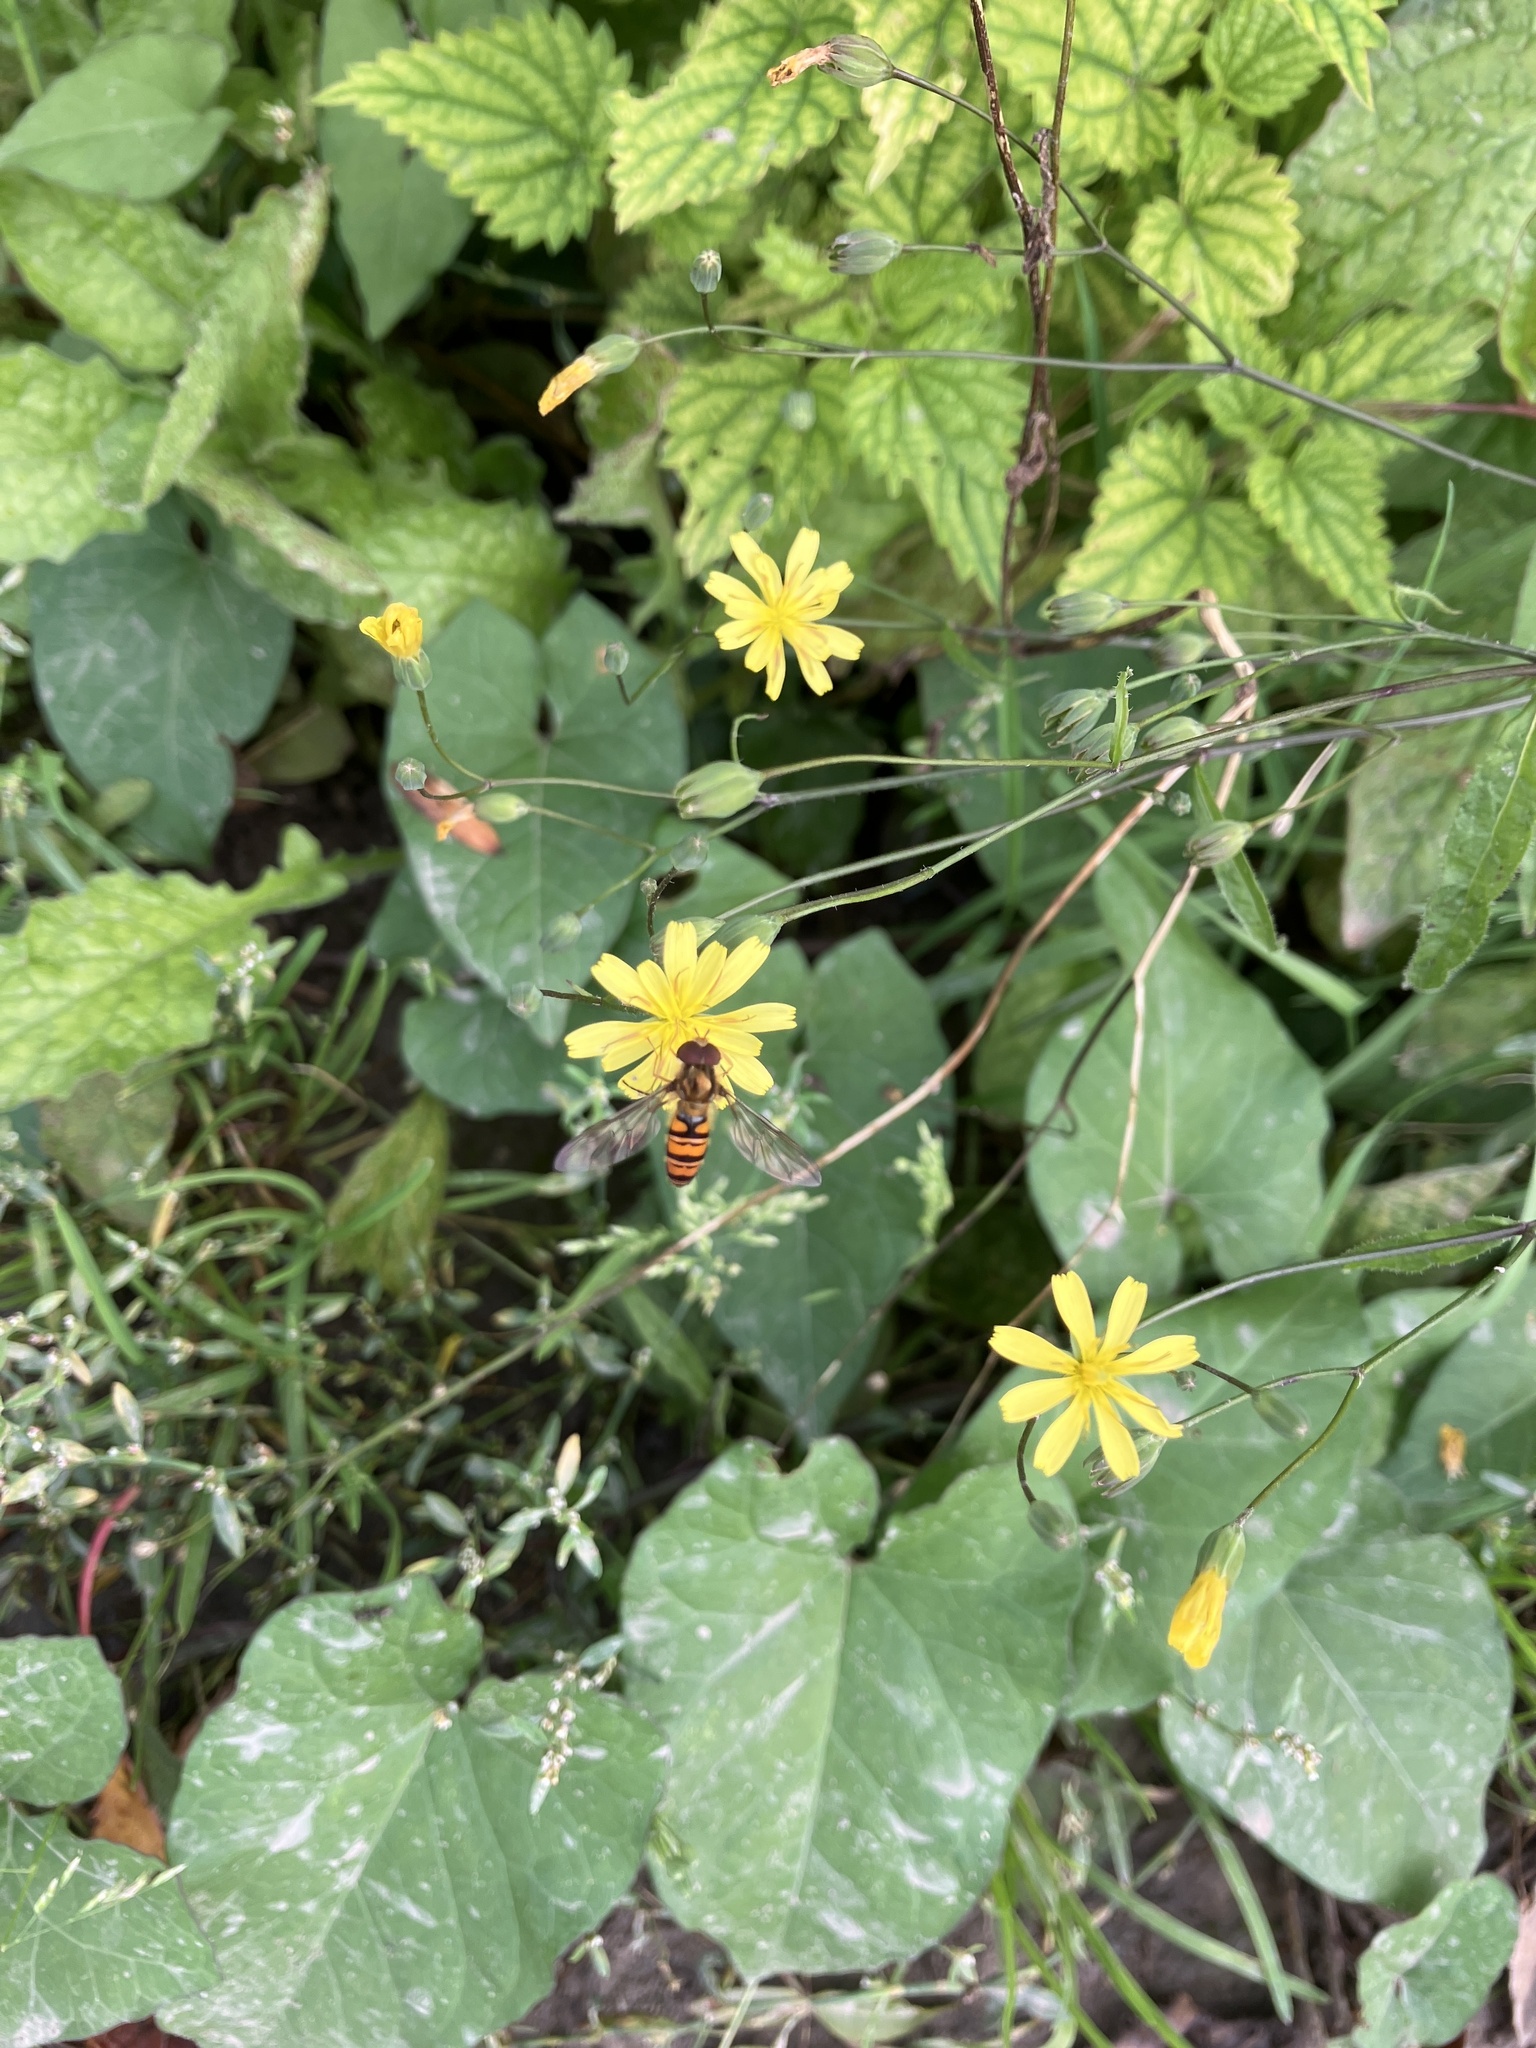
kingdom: Animalia
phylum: Arthropoda
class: Insecta
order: Diptera
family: Syrphidae
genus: Episyrphus
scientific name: Episyrphus balteatus
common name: Marmalade hoverfly
